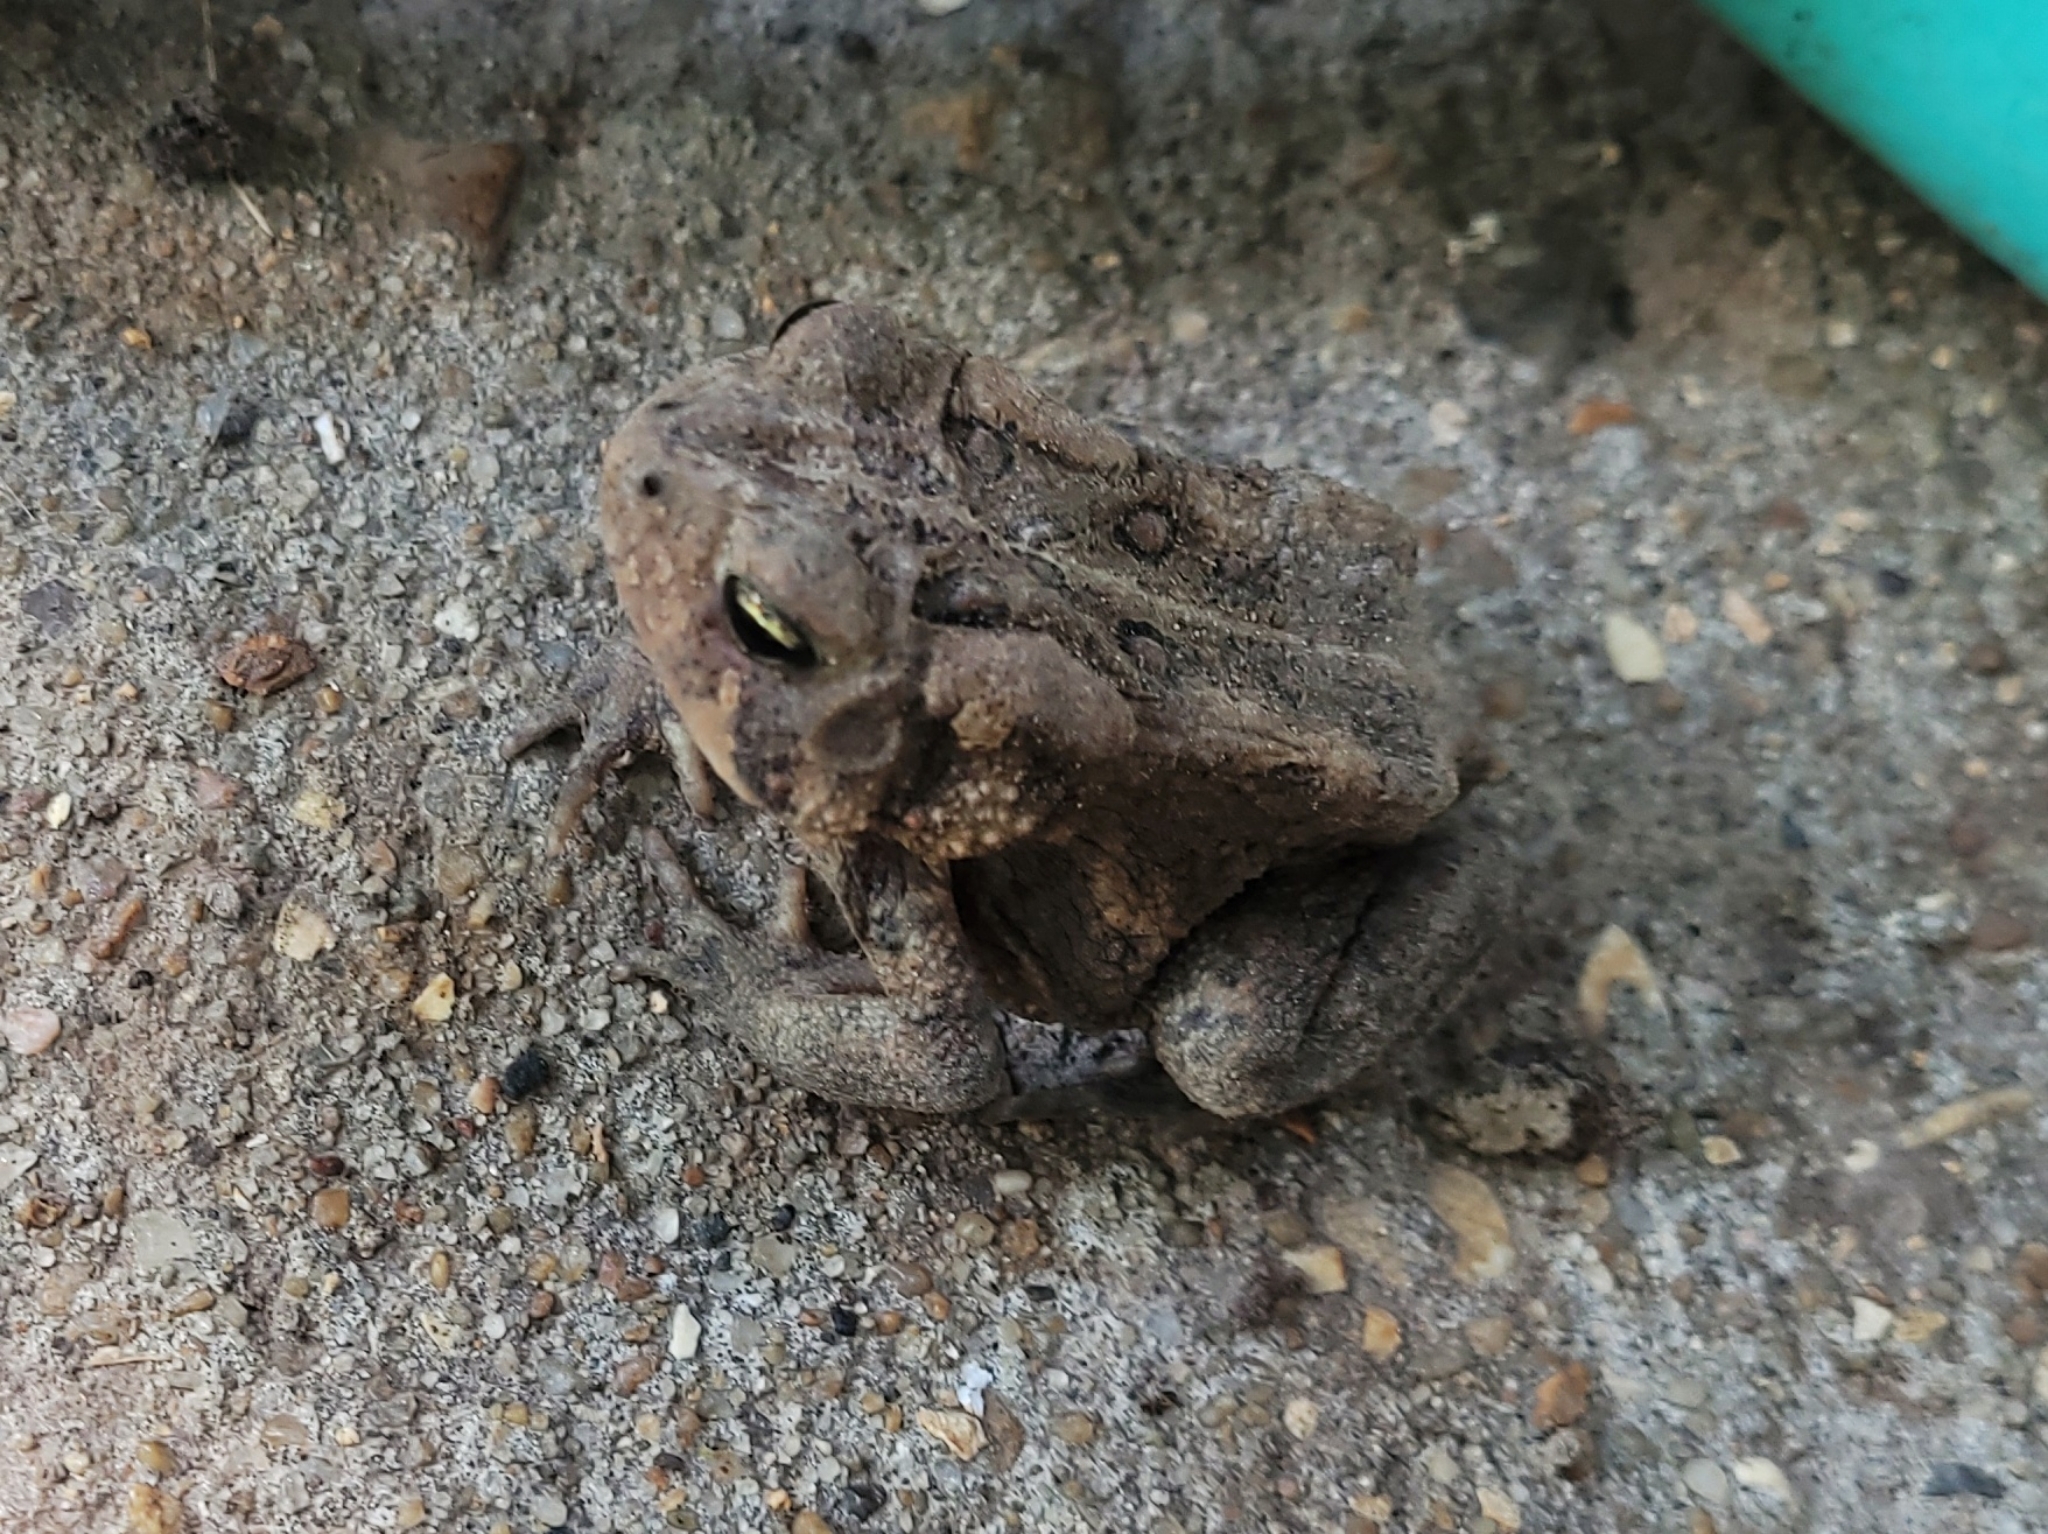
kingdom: Animalia
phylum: Chordata
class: Amphibia
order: Anura
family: Bufonidae
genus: Anaxyrus
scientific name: Anaxyrus americanus
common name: American toad
